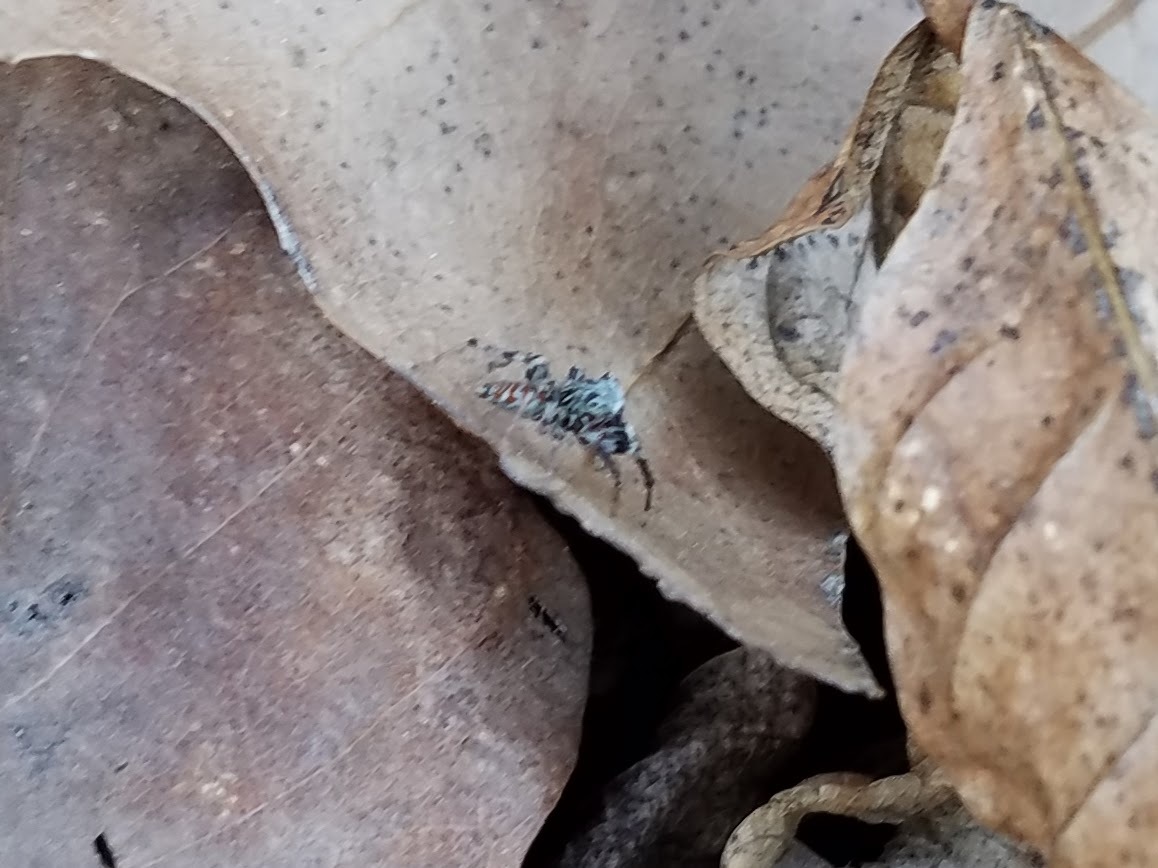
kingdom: Animalia
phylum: Arthropoda
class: Arachnida
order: Araneae
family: Salticidae
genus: Maevia
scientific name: Maevia inclemens
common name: Dimorphic jumper
